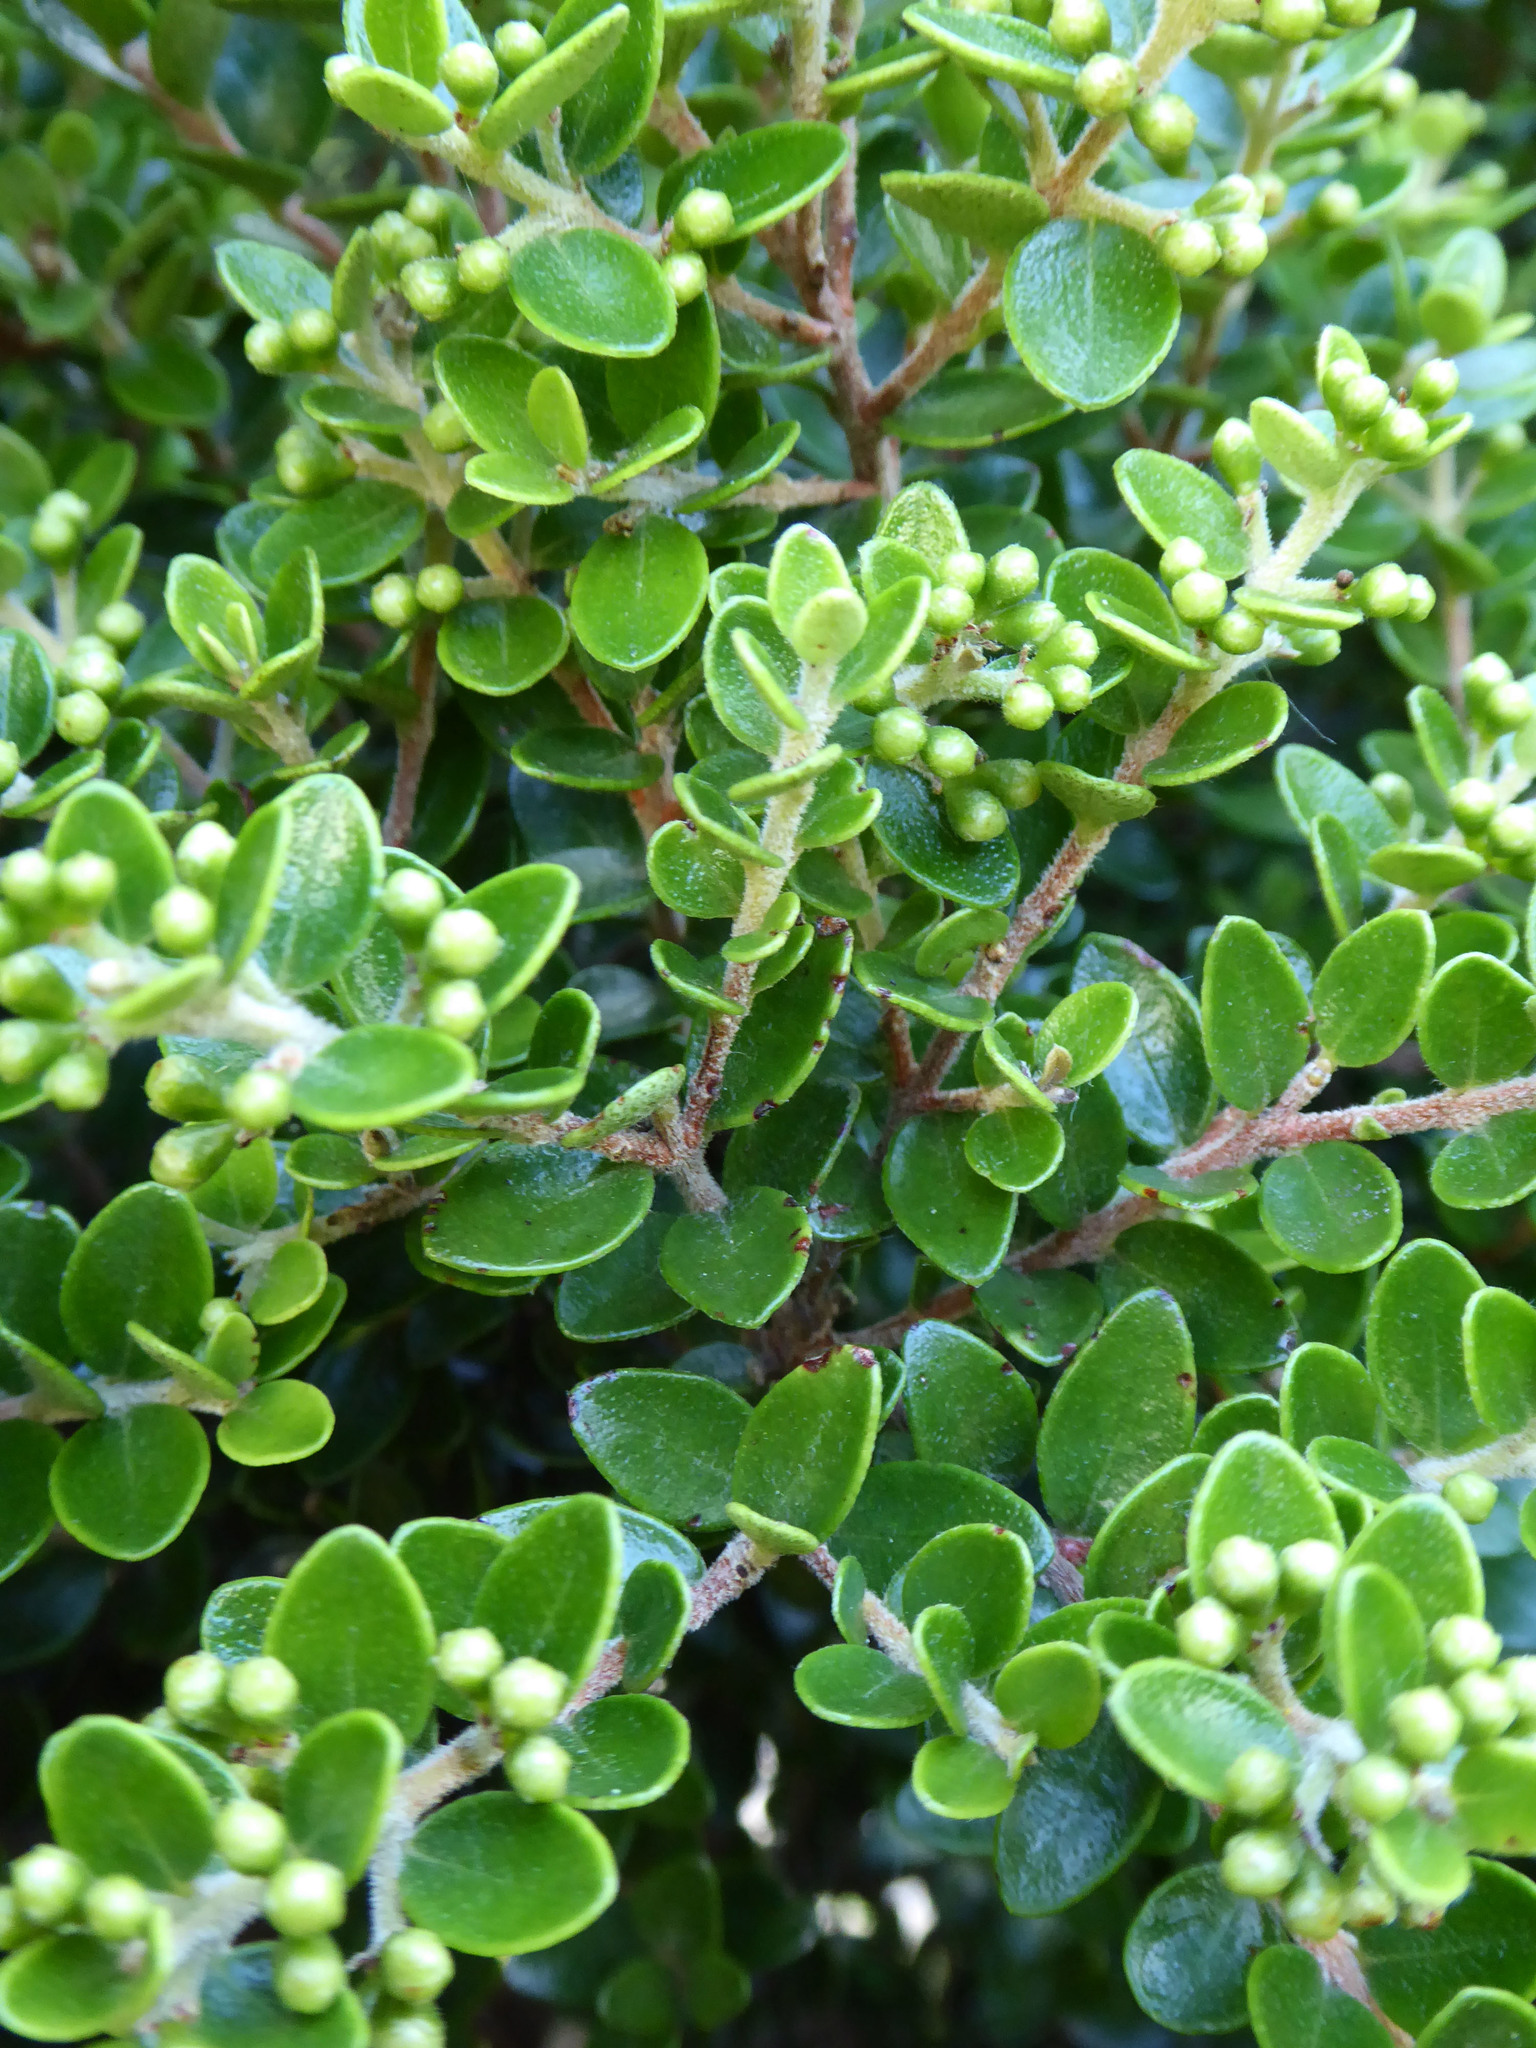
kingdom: Plantae
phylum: Tracheophyta
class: Magnoliopsida
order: Myrtales
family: Myrtaceae
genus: Metrosideros
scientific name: Metrosideros perforata
